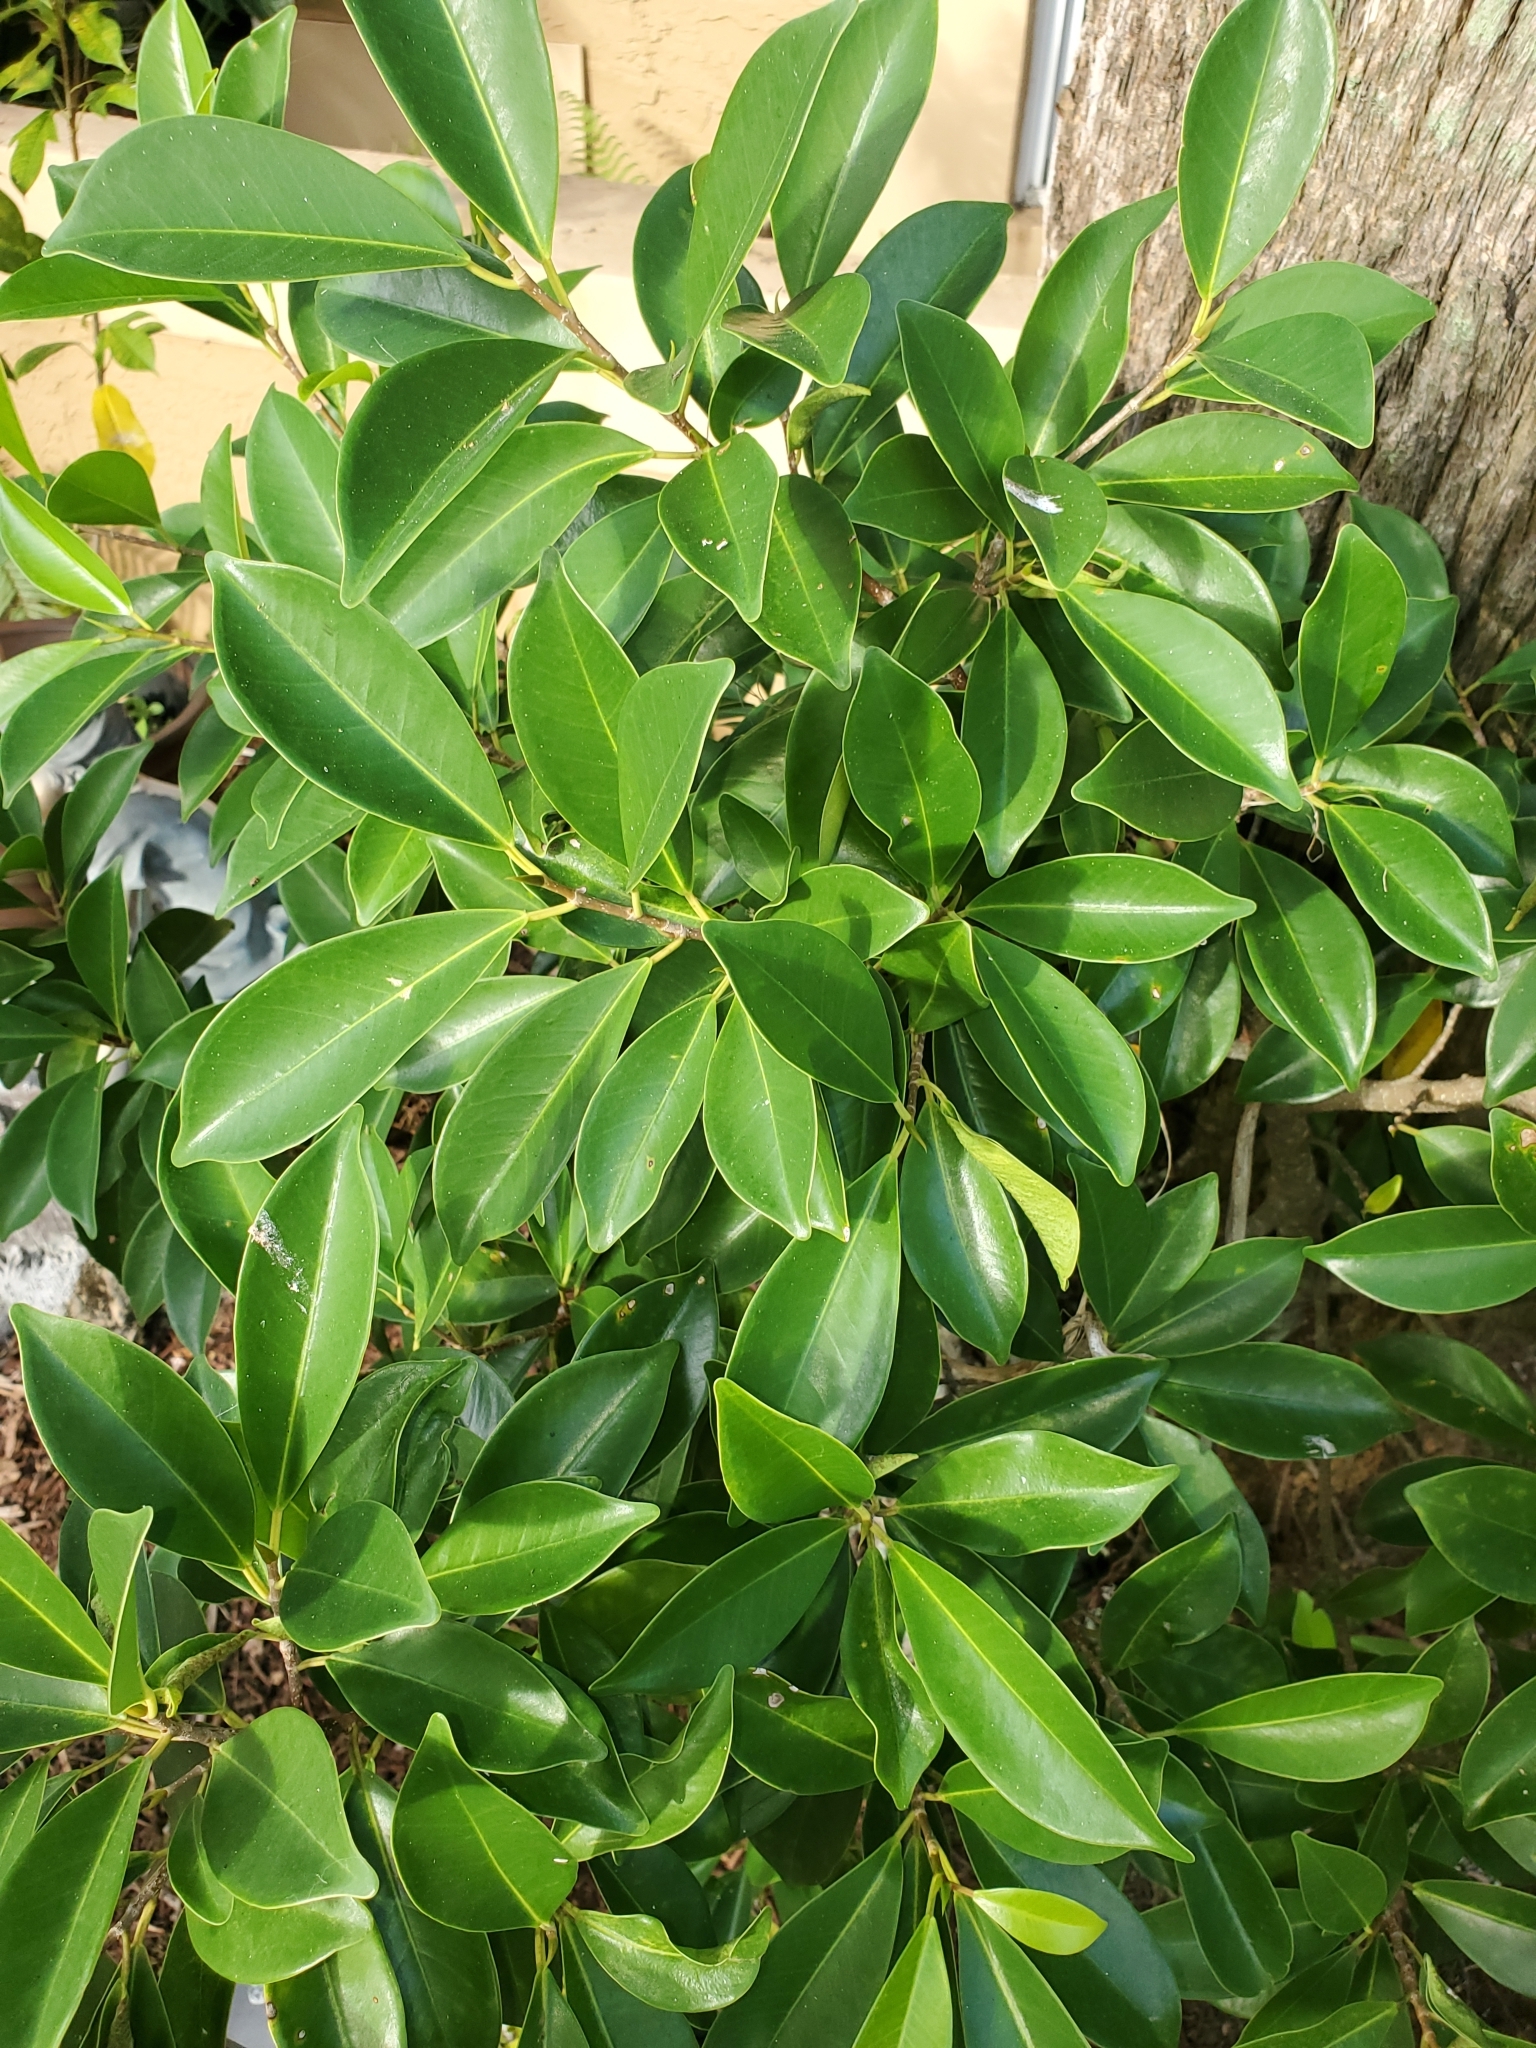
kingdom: Plantae
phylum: Tracheophyta
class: Magnoliopsida
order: Rosales
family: Moraceae
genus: Ficus
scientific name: Ficus microcarpa
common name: Chinese banyan
